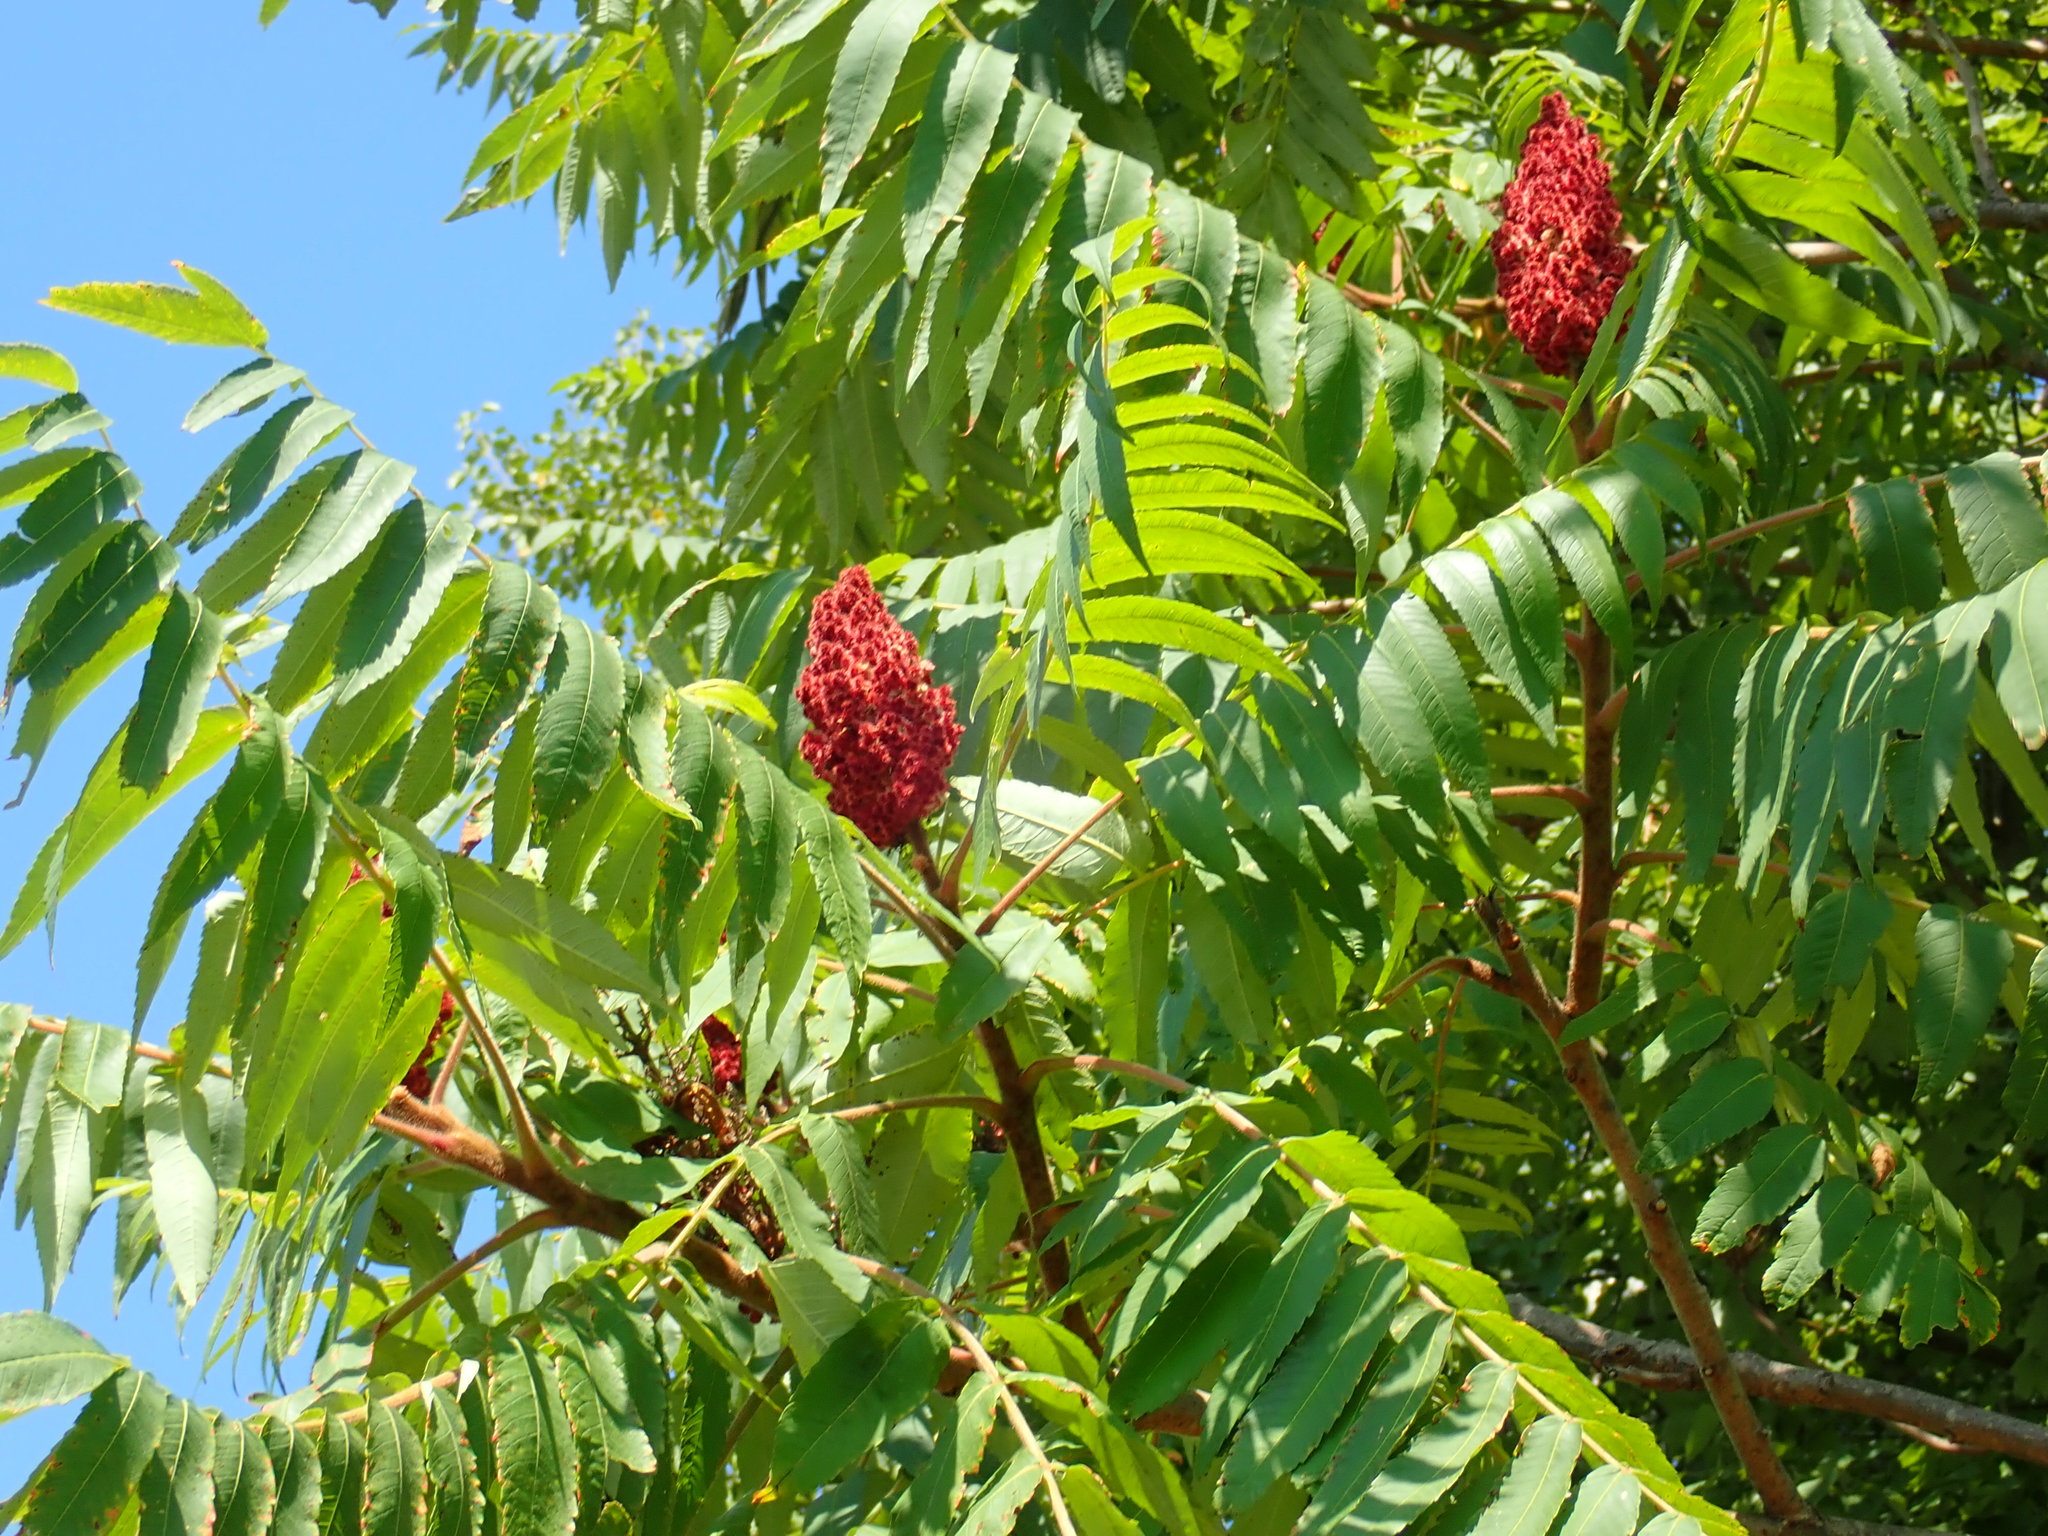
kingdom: Plantae
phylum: Tracheophyta
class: Magnoliopsida
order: Sapindales
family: Anacardiaceae
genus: Rhus
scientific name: Rhus typhina
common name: Staghorn sumac
